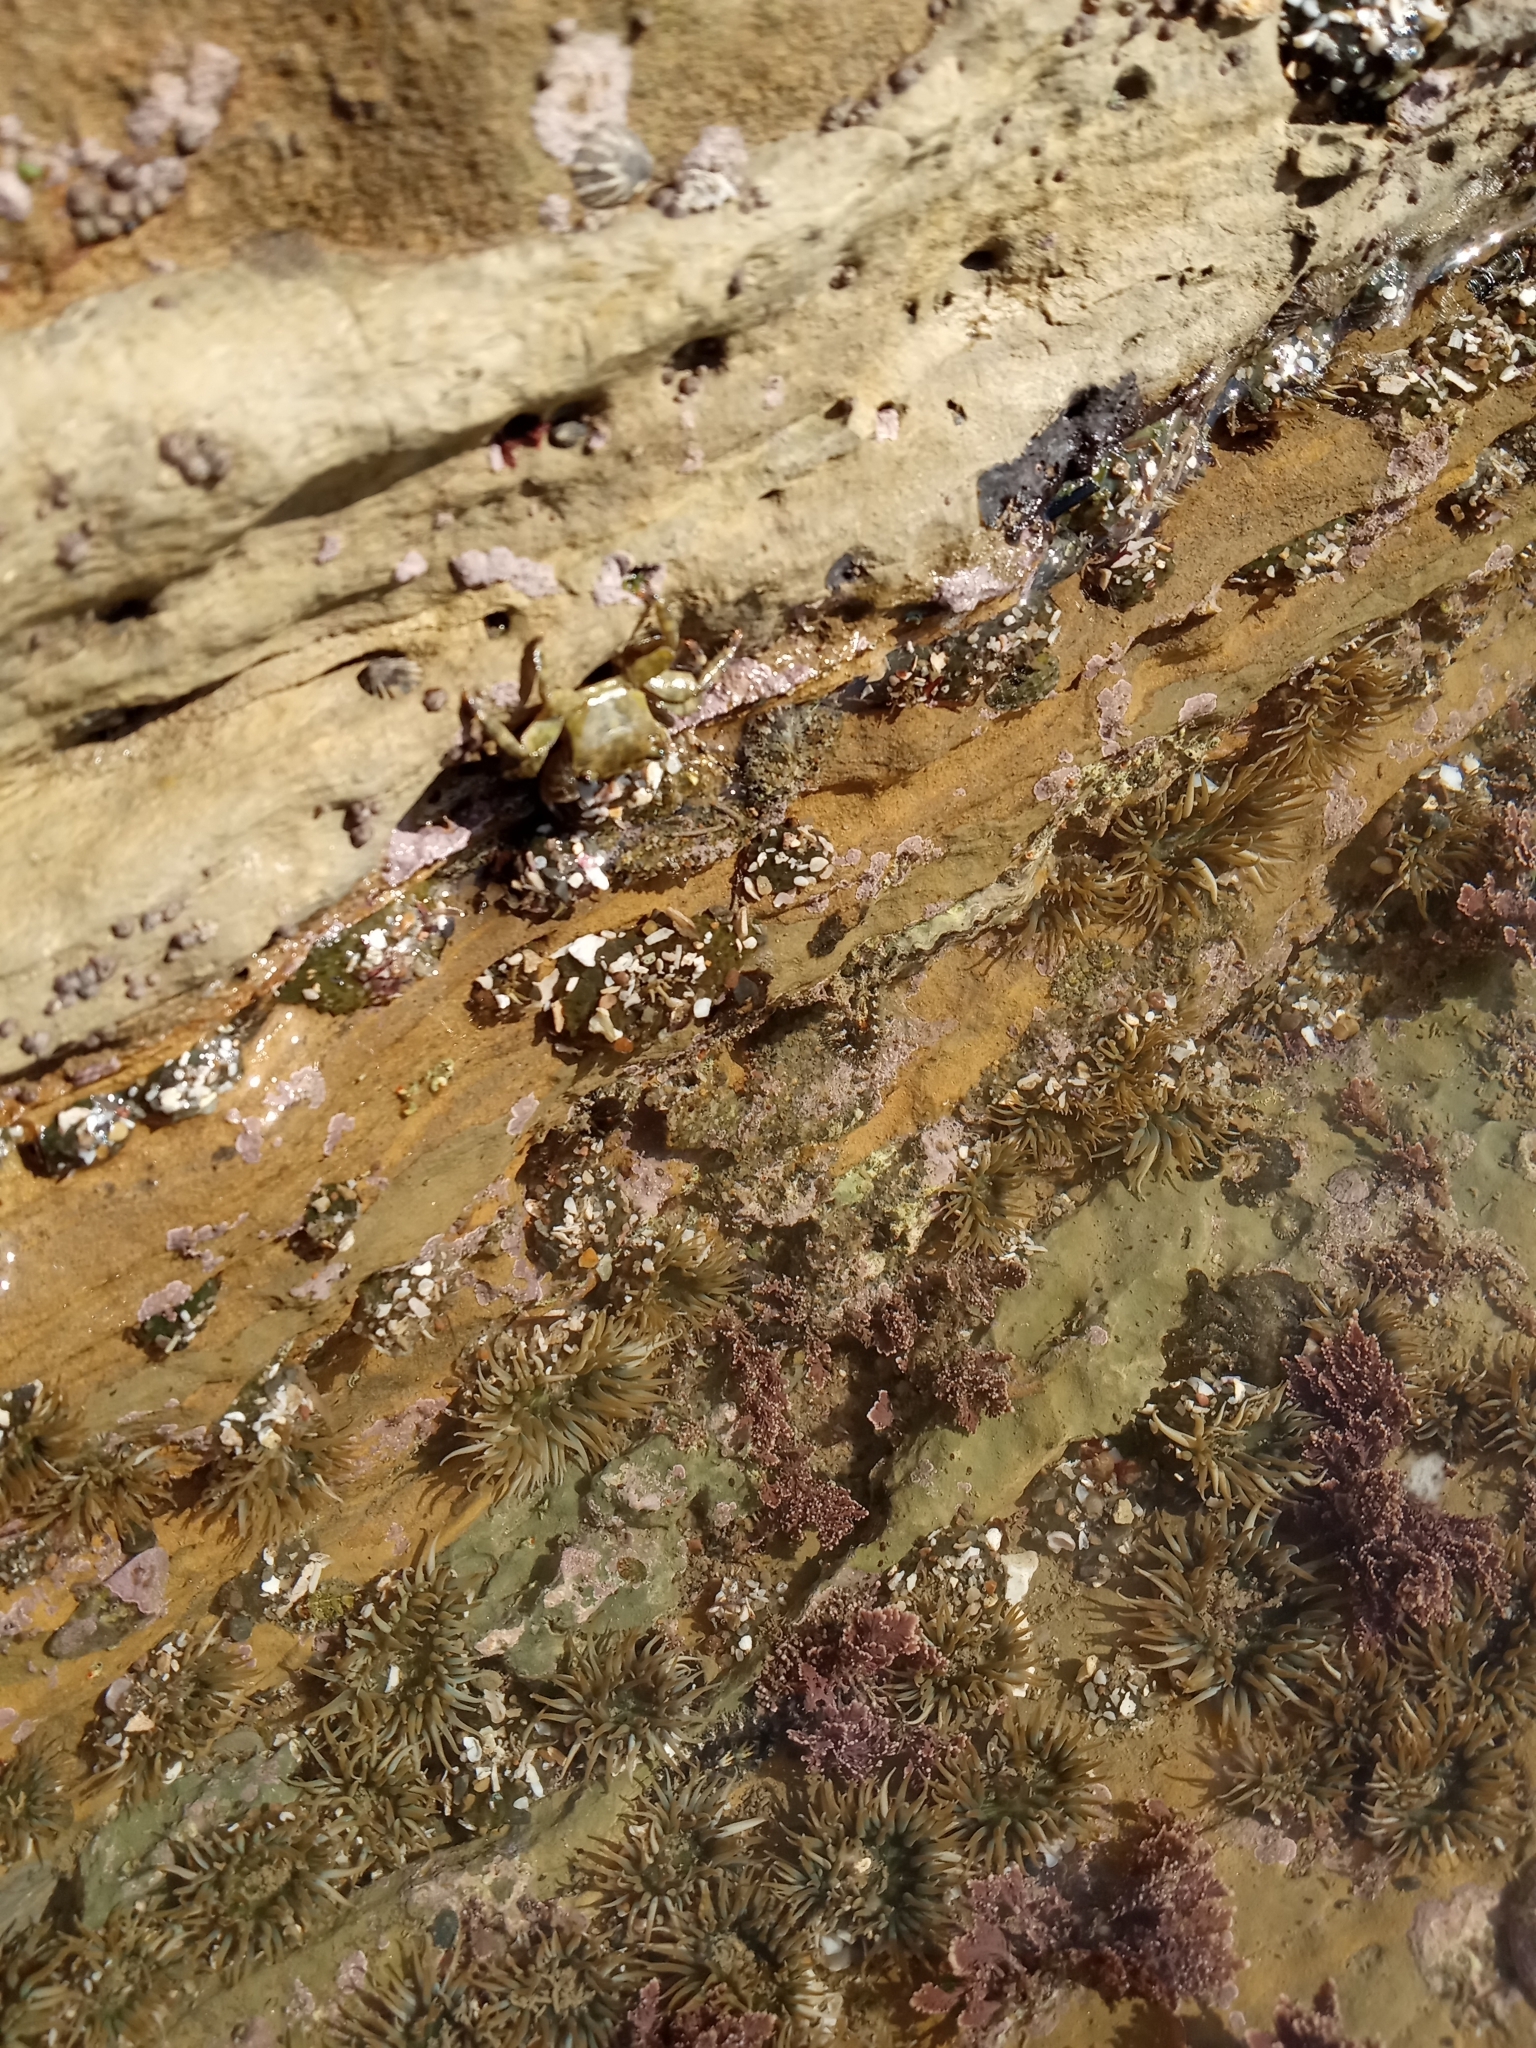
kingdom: Animalia
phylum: Arthropoda
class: Malacostraca
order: Decapoda
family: Grapsidae
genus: Pachygrapsus
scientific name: Pachygrapsus crassipes
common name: Striped shore crab
